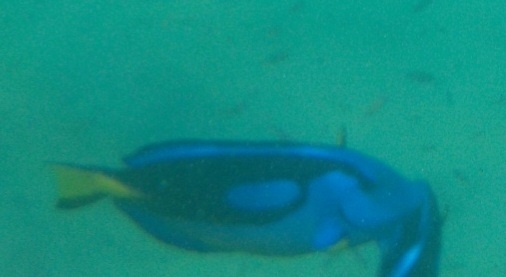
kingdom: Animalia
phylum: Chordata
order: Perciformes
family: Acanthuridae
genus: Paracanthurus
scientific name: Paracanthurus hepatus
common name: Palette surgeonfish
